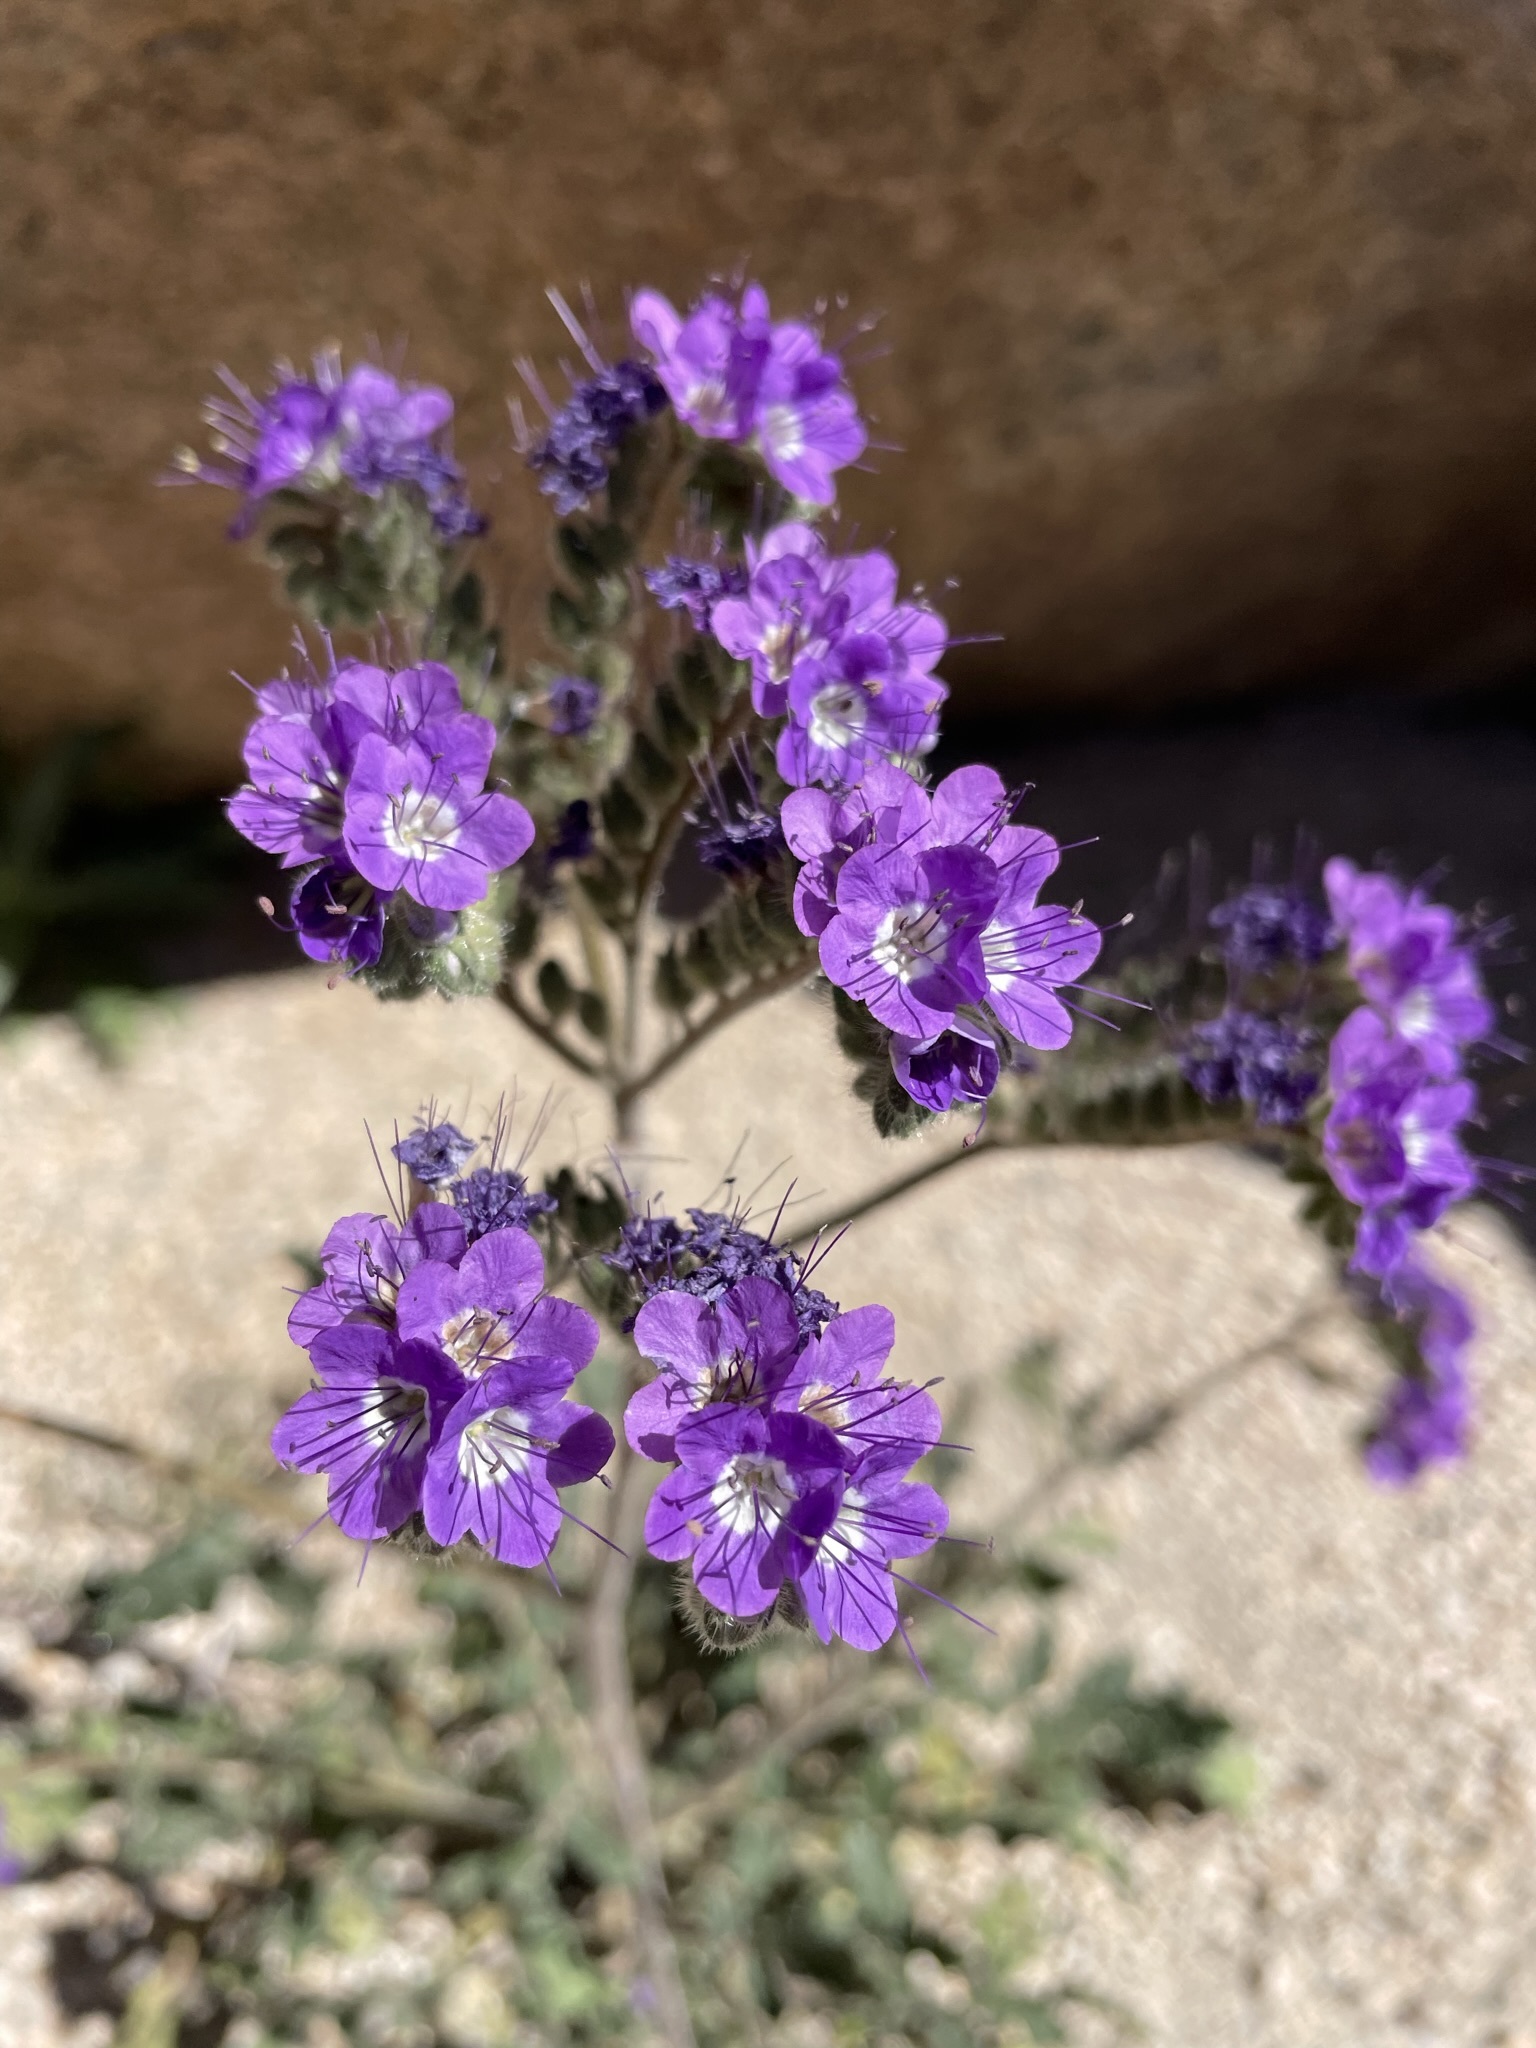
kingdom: Plantae
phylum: Tracheophyta
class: Magnoliopsida
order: Boraginales
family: Hydrophyllaceae
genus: Phacelia
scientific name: Phacelia crenulata
